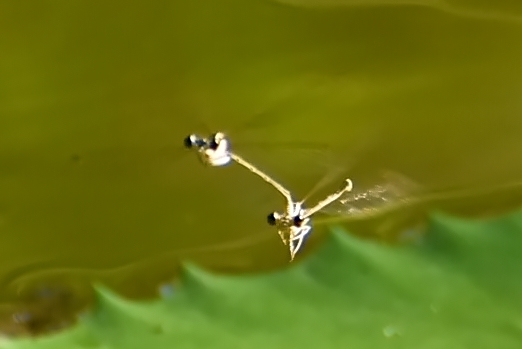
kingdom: Animalia
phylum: Arthropoda
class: Insecta
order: Odonata
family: Platycnemididae
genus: Pseudocopera
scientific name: Pseudocopera ciliata
